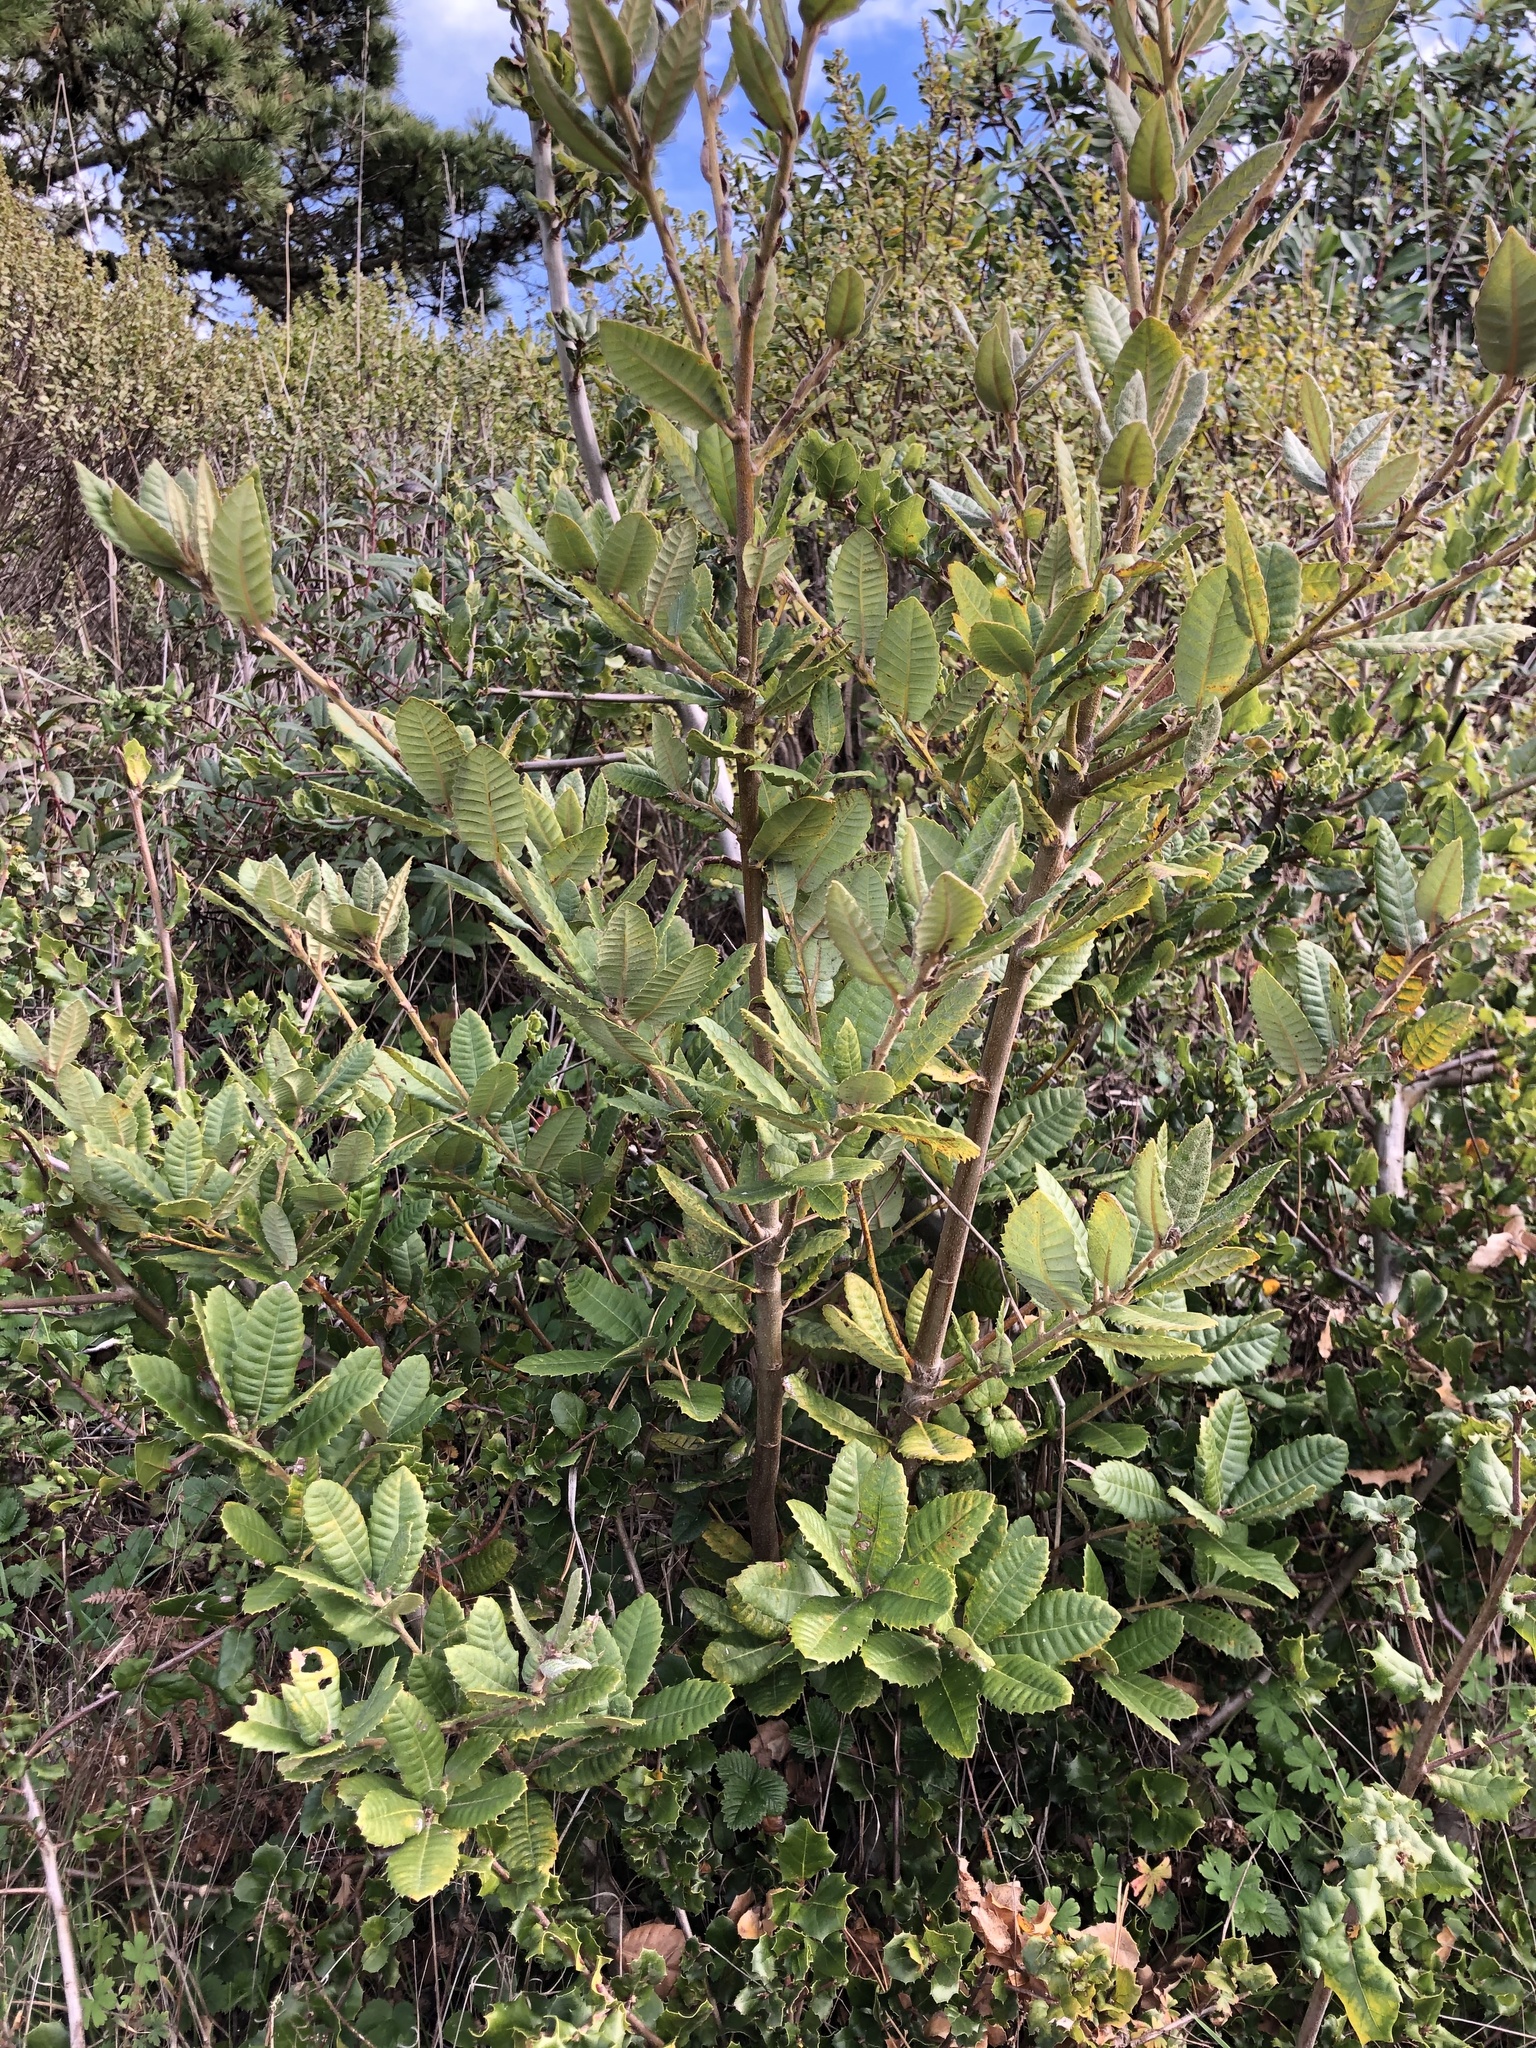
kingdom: Plantae
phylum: Tracheophyta
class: Magnoliopsida
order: Fagales
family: Fagaceae
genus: Notholithocarpus
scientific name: Notholithocarpus densiflorus
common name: Tan bark oak
